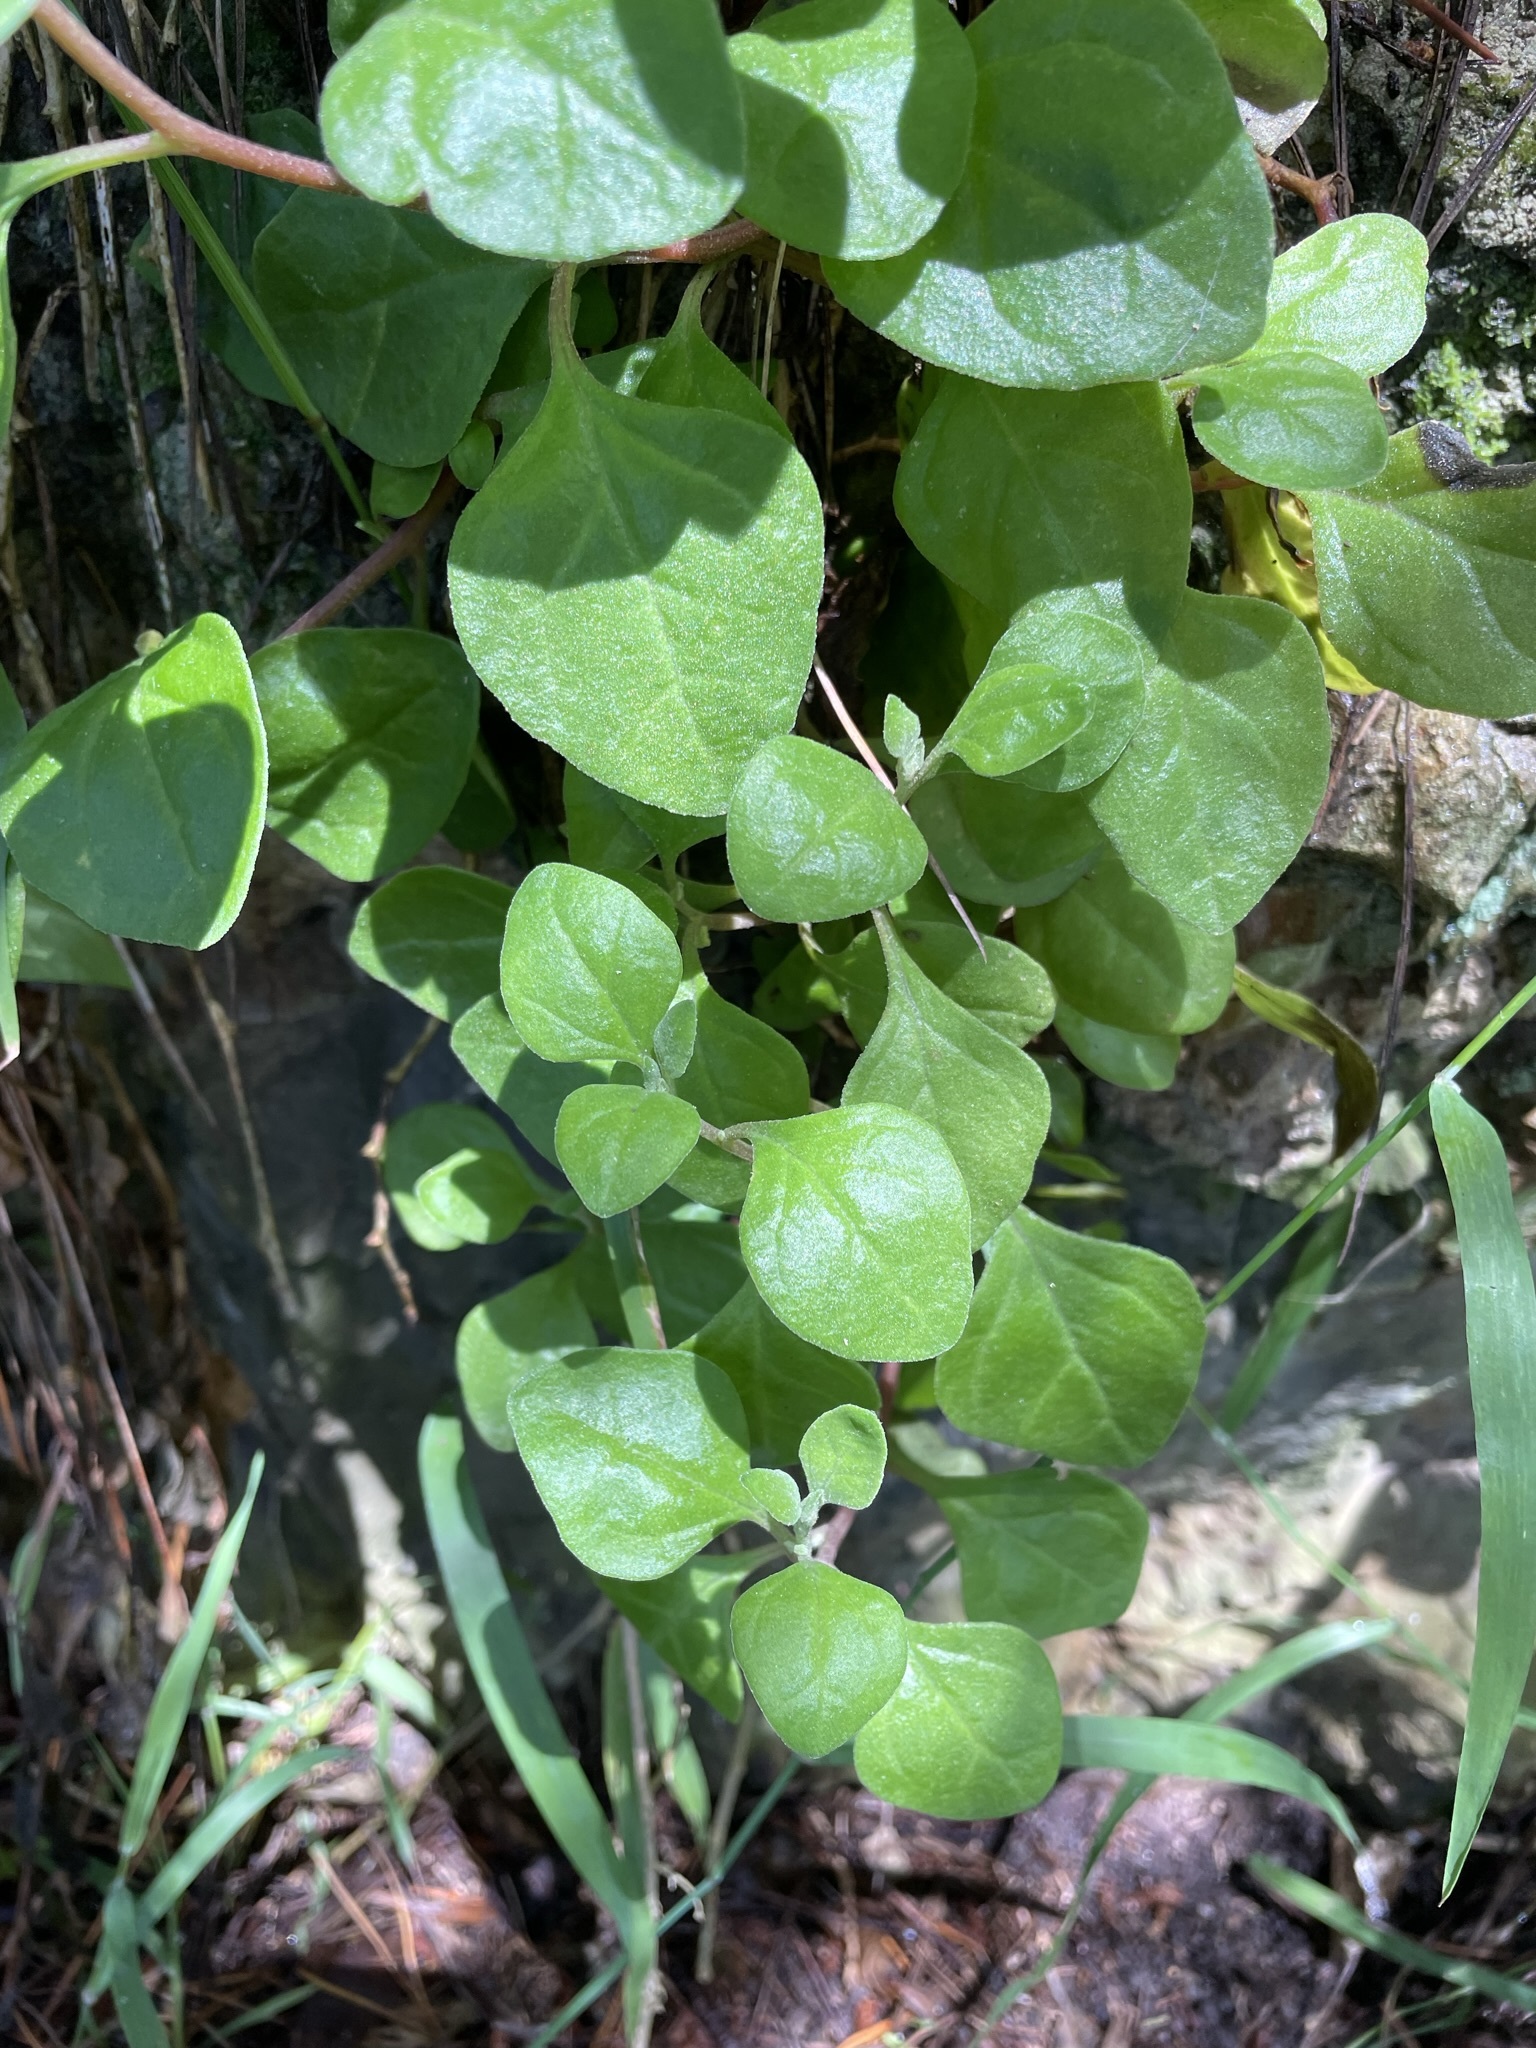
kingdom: Plantae
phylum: Tracheophyta
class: Magnoliopsida
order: Caryophyllales
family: Aizoaceae
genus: Tetragonia
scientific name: Tetragonia implexicoma
